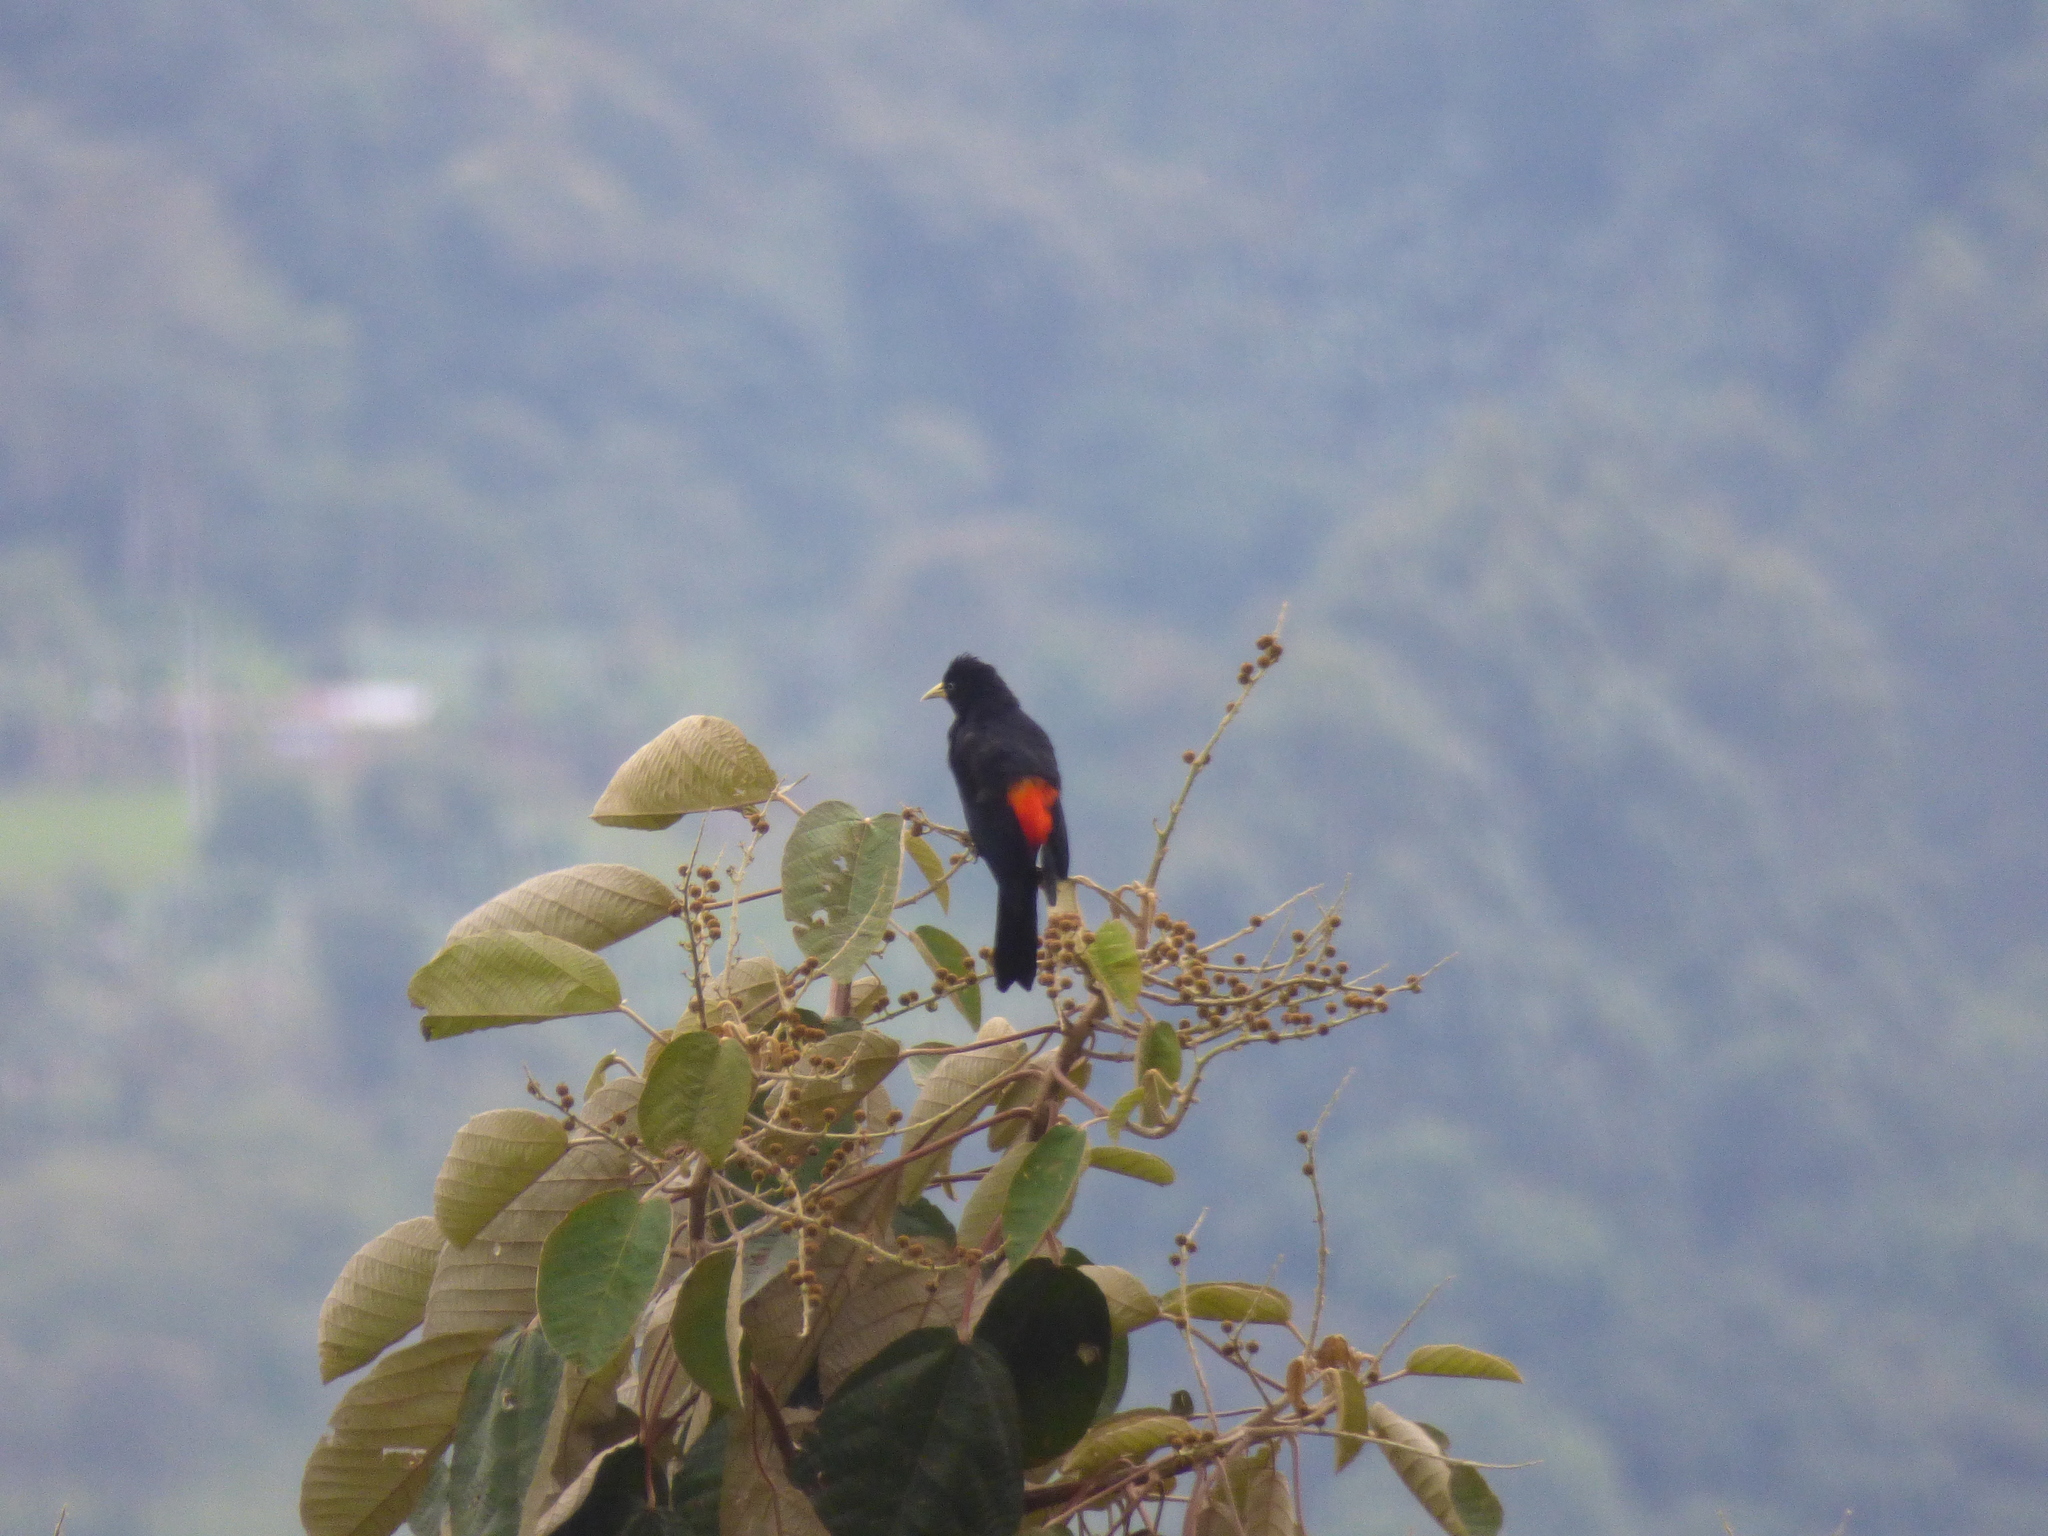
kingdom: Animalia
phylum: Chordata
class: Aves
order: Passeriformes
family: Icteridae
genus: Cacicus
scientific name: Cacicus uropygialis
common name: Scarlet-rumped cacique
